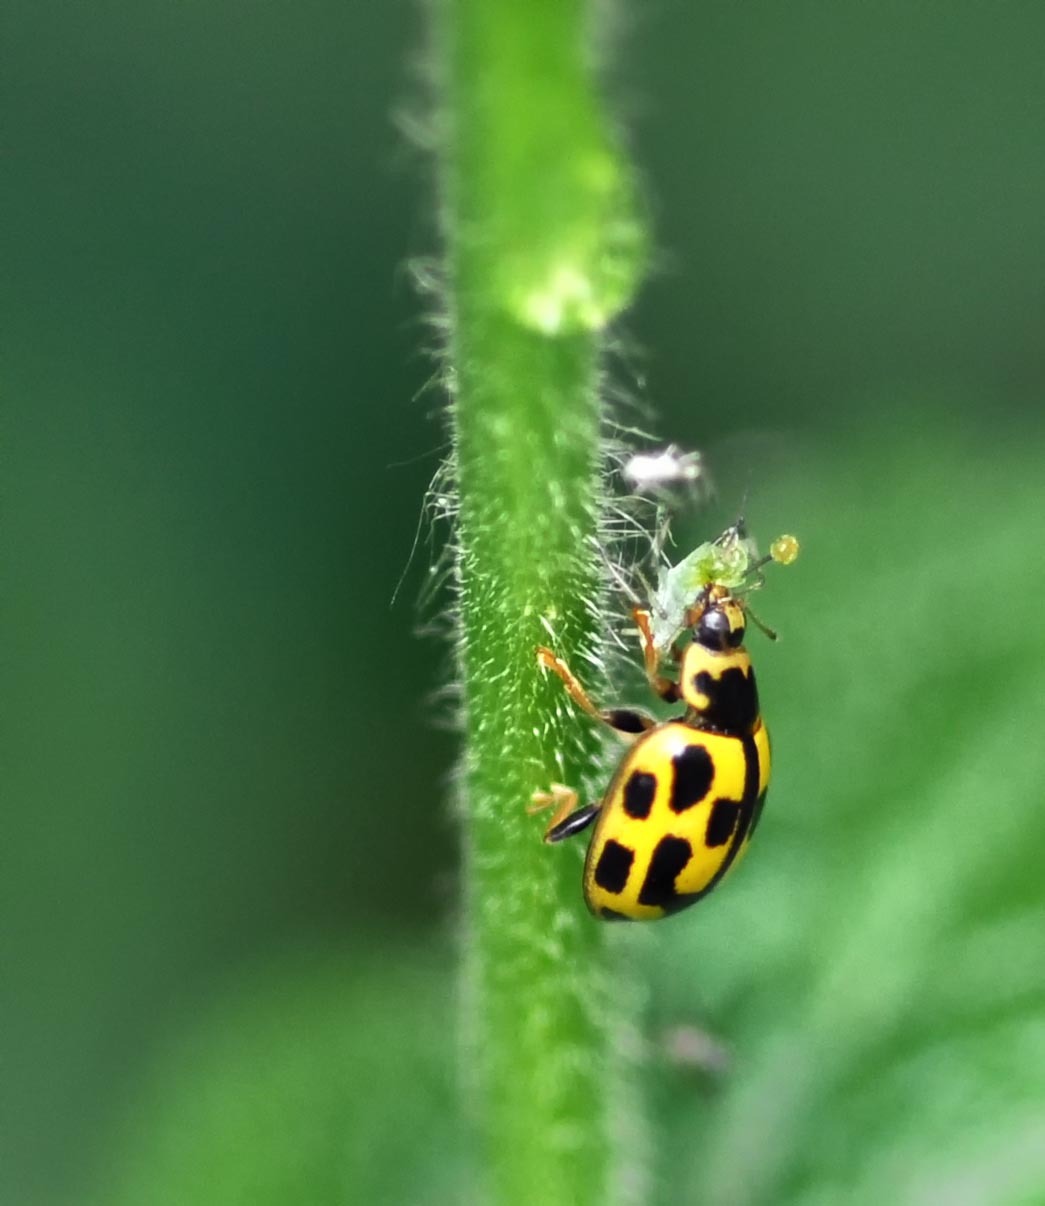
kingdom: Animalia
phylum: Arthropoda
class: Insecta
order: Coleoptera
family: Coccinellidae
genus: Propylaea
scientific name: Propylaea quatuordecimpunctata
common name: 14-spotted ladybird beetle
